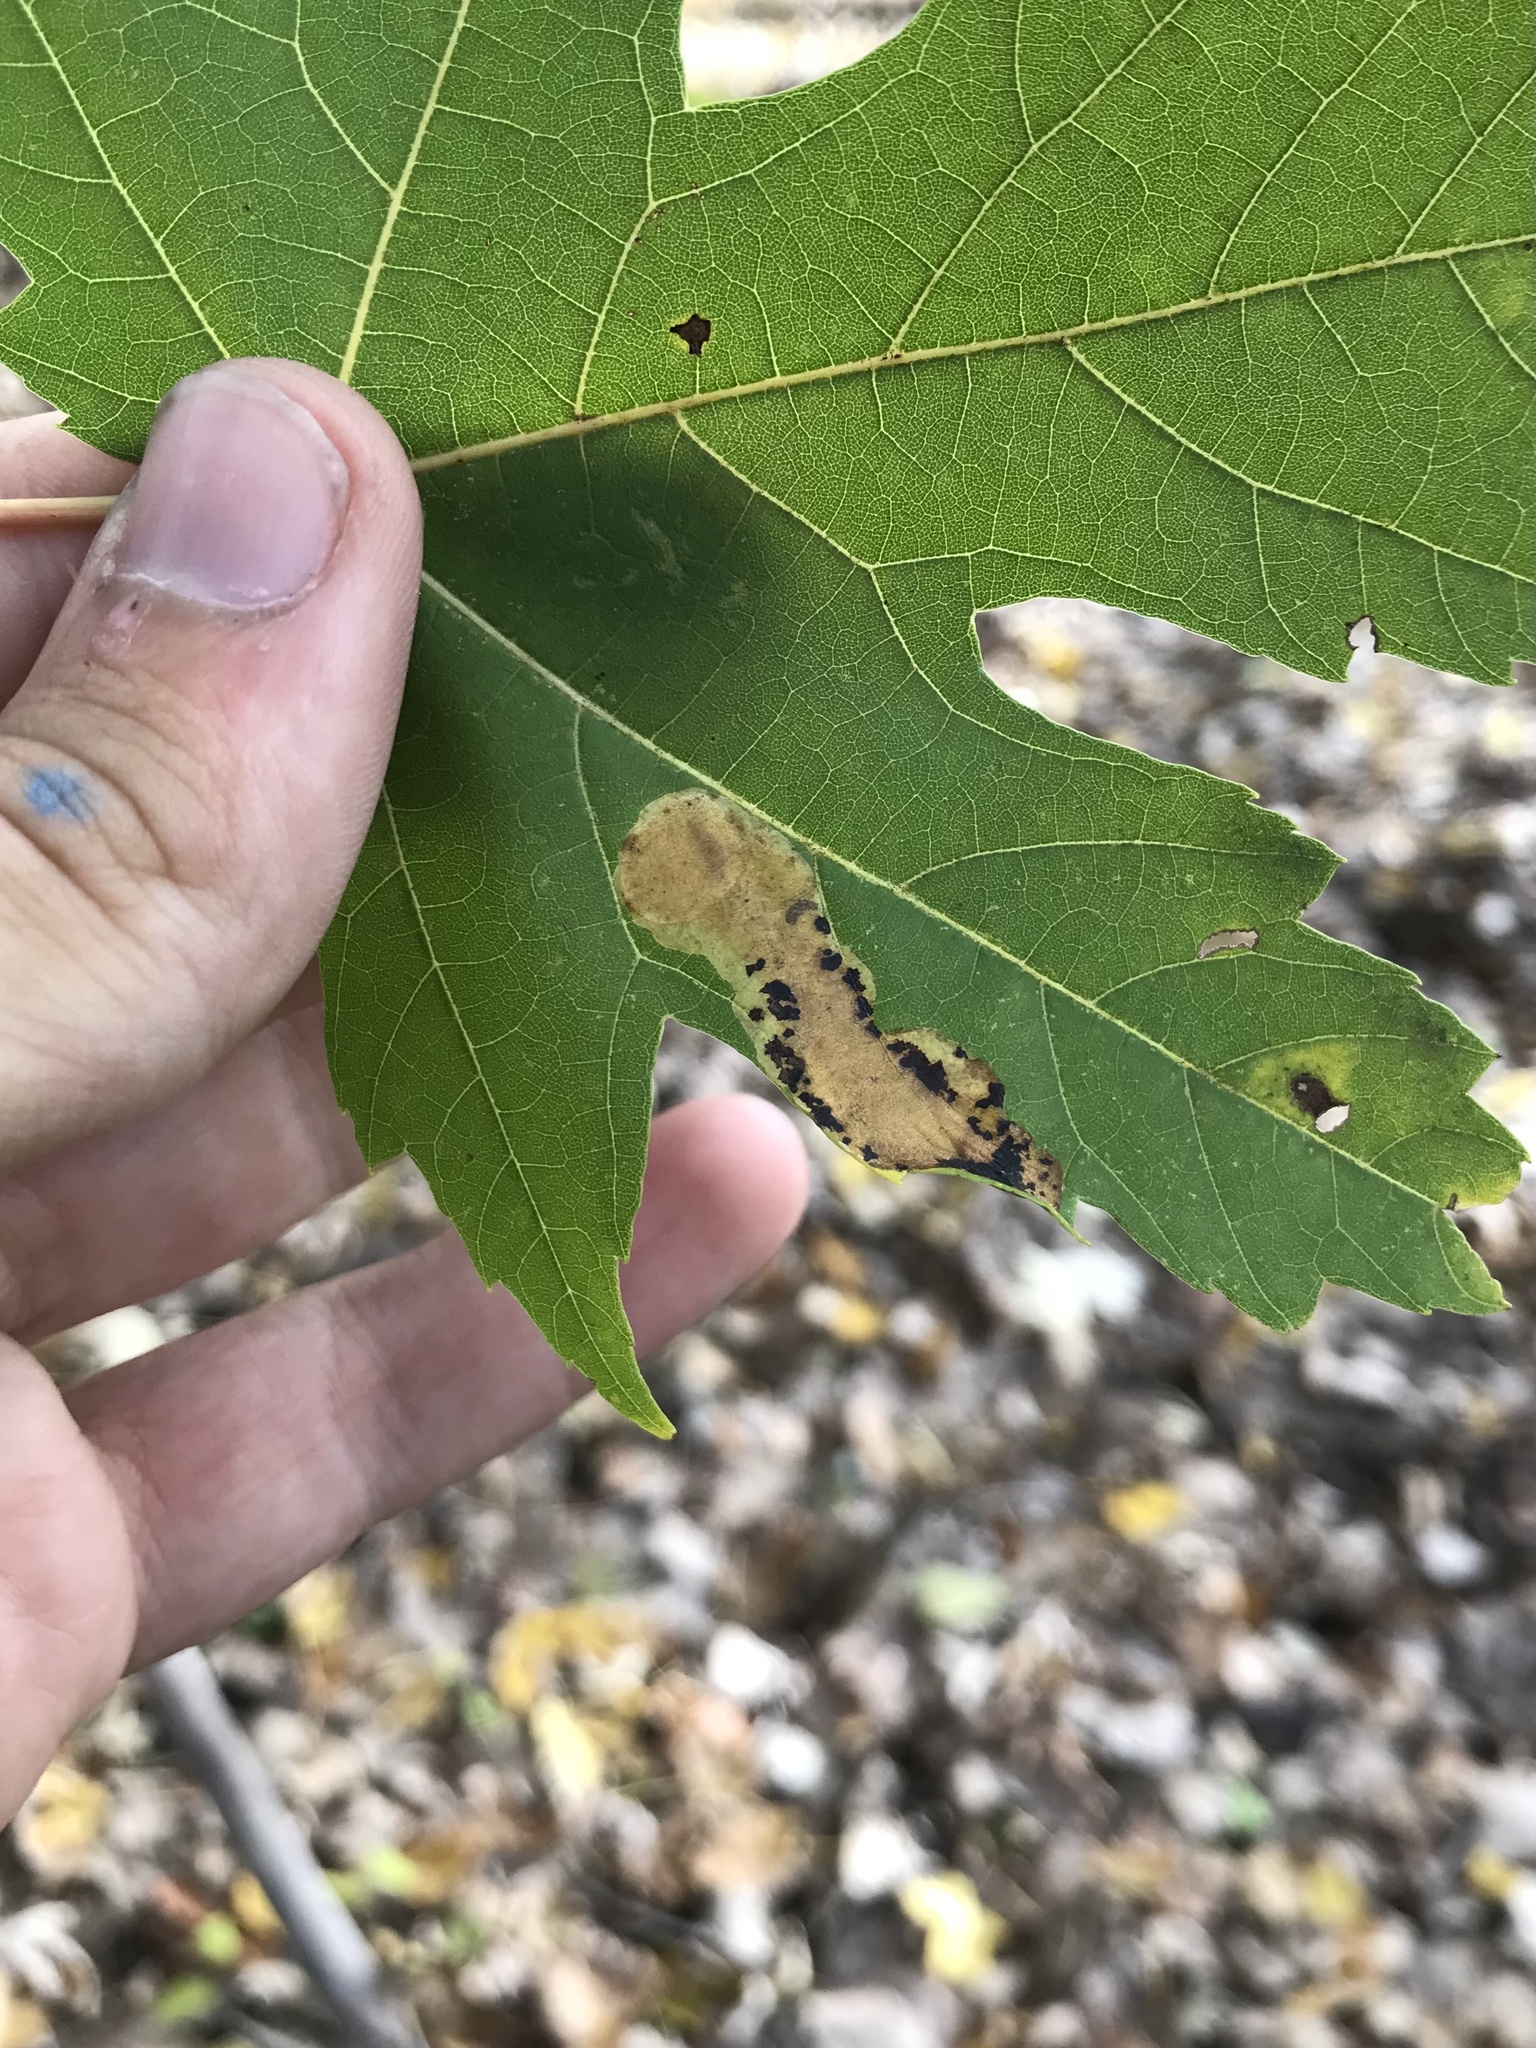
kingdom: Animalia
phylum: Arthropoda
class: Insecta
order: Lepidoptera
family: Gracillariidae
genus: Cameraria
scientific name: Cameraria aceriella
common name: Maple leafblotch miner
